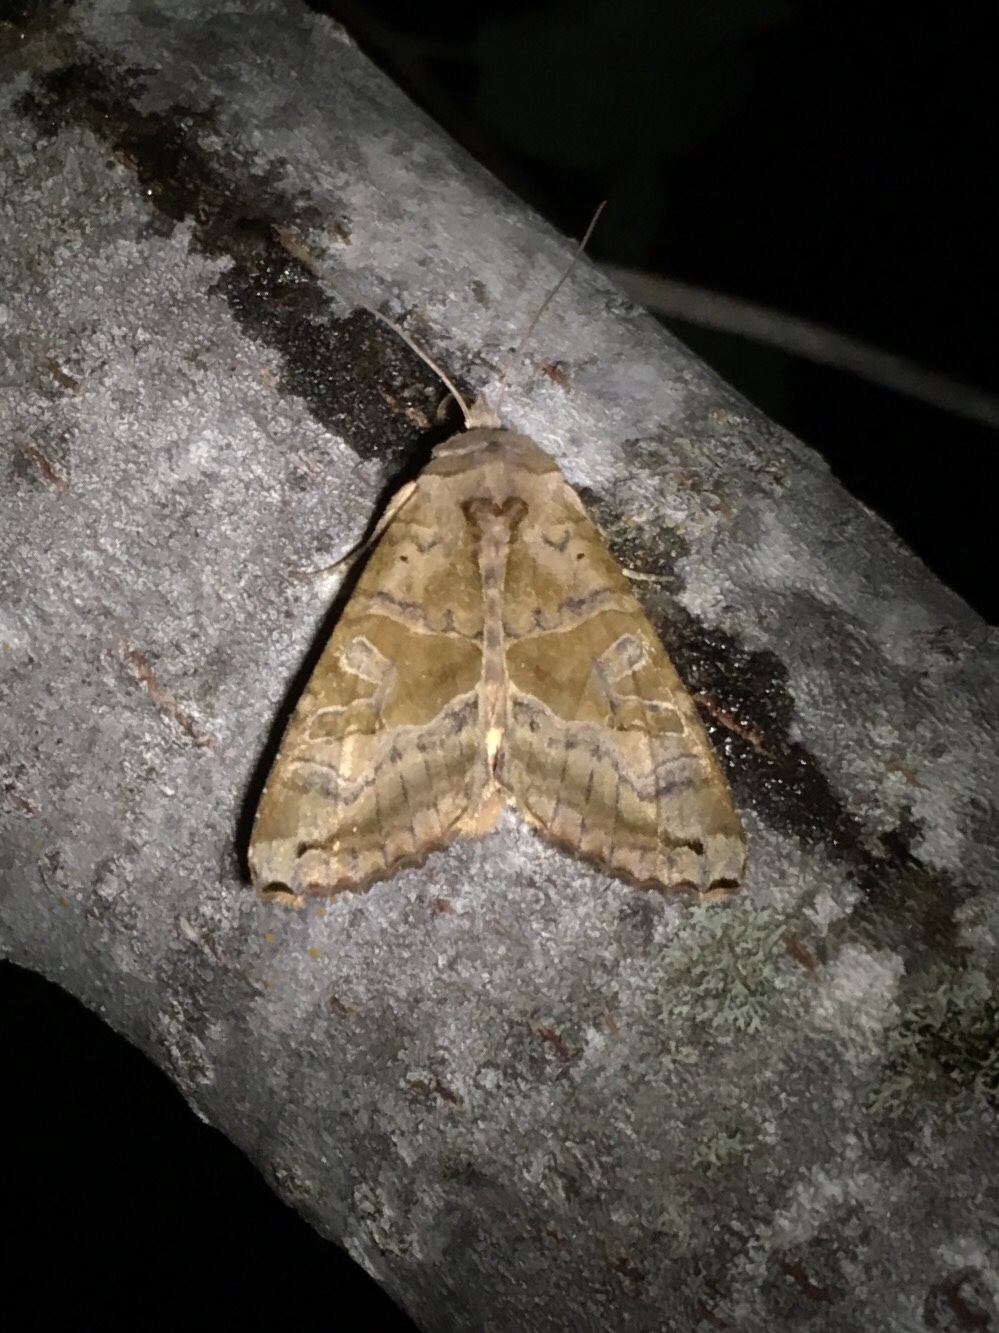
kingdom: Animalia
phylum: Arthropoda
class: Insecta
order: Lepidoptera
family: Noctuidae
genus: Phlogophora
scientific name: Phlogophora periculosa
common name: Brown angle shades
